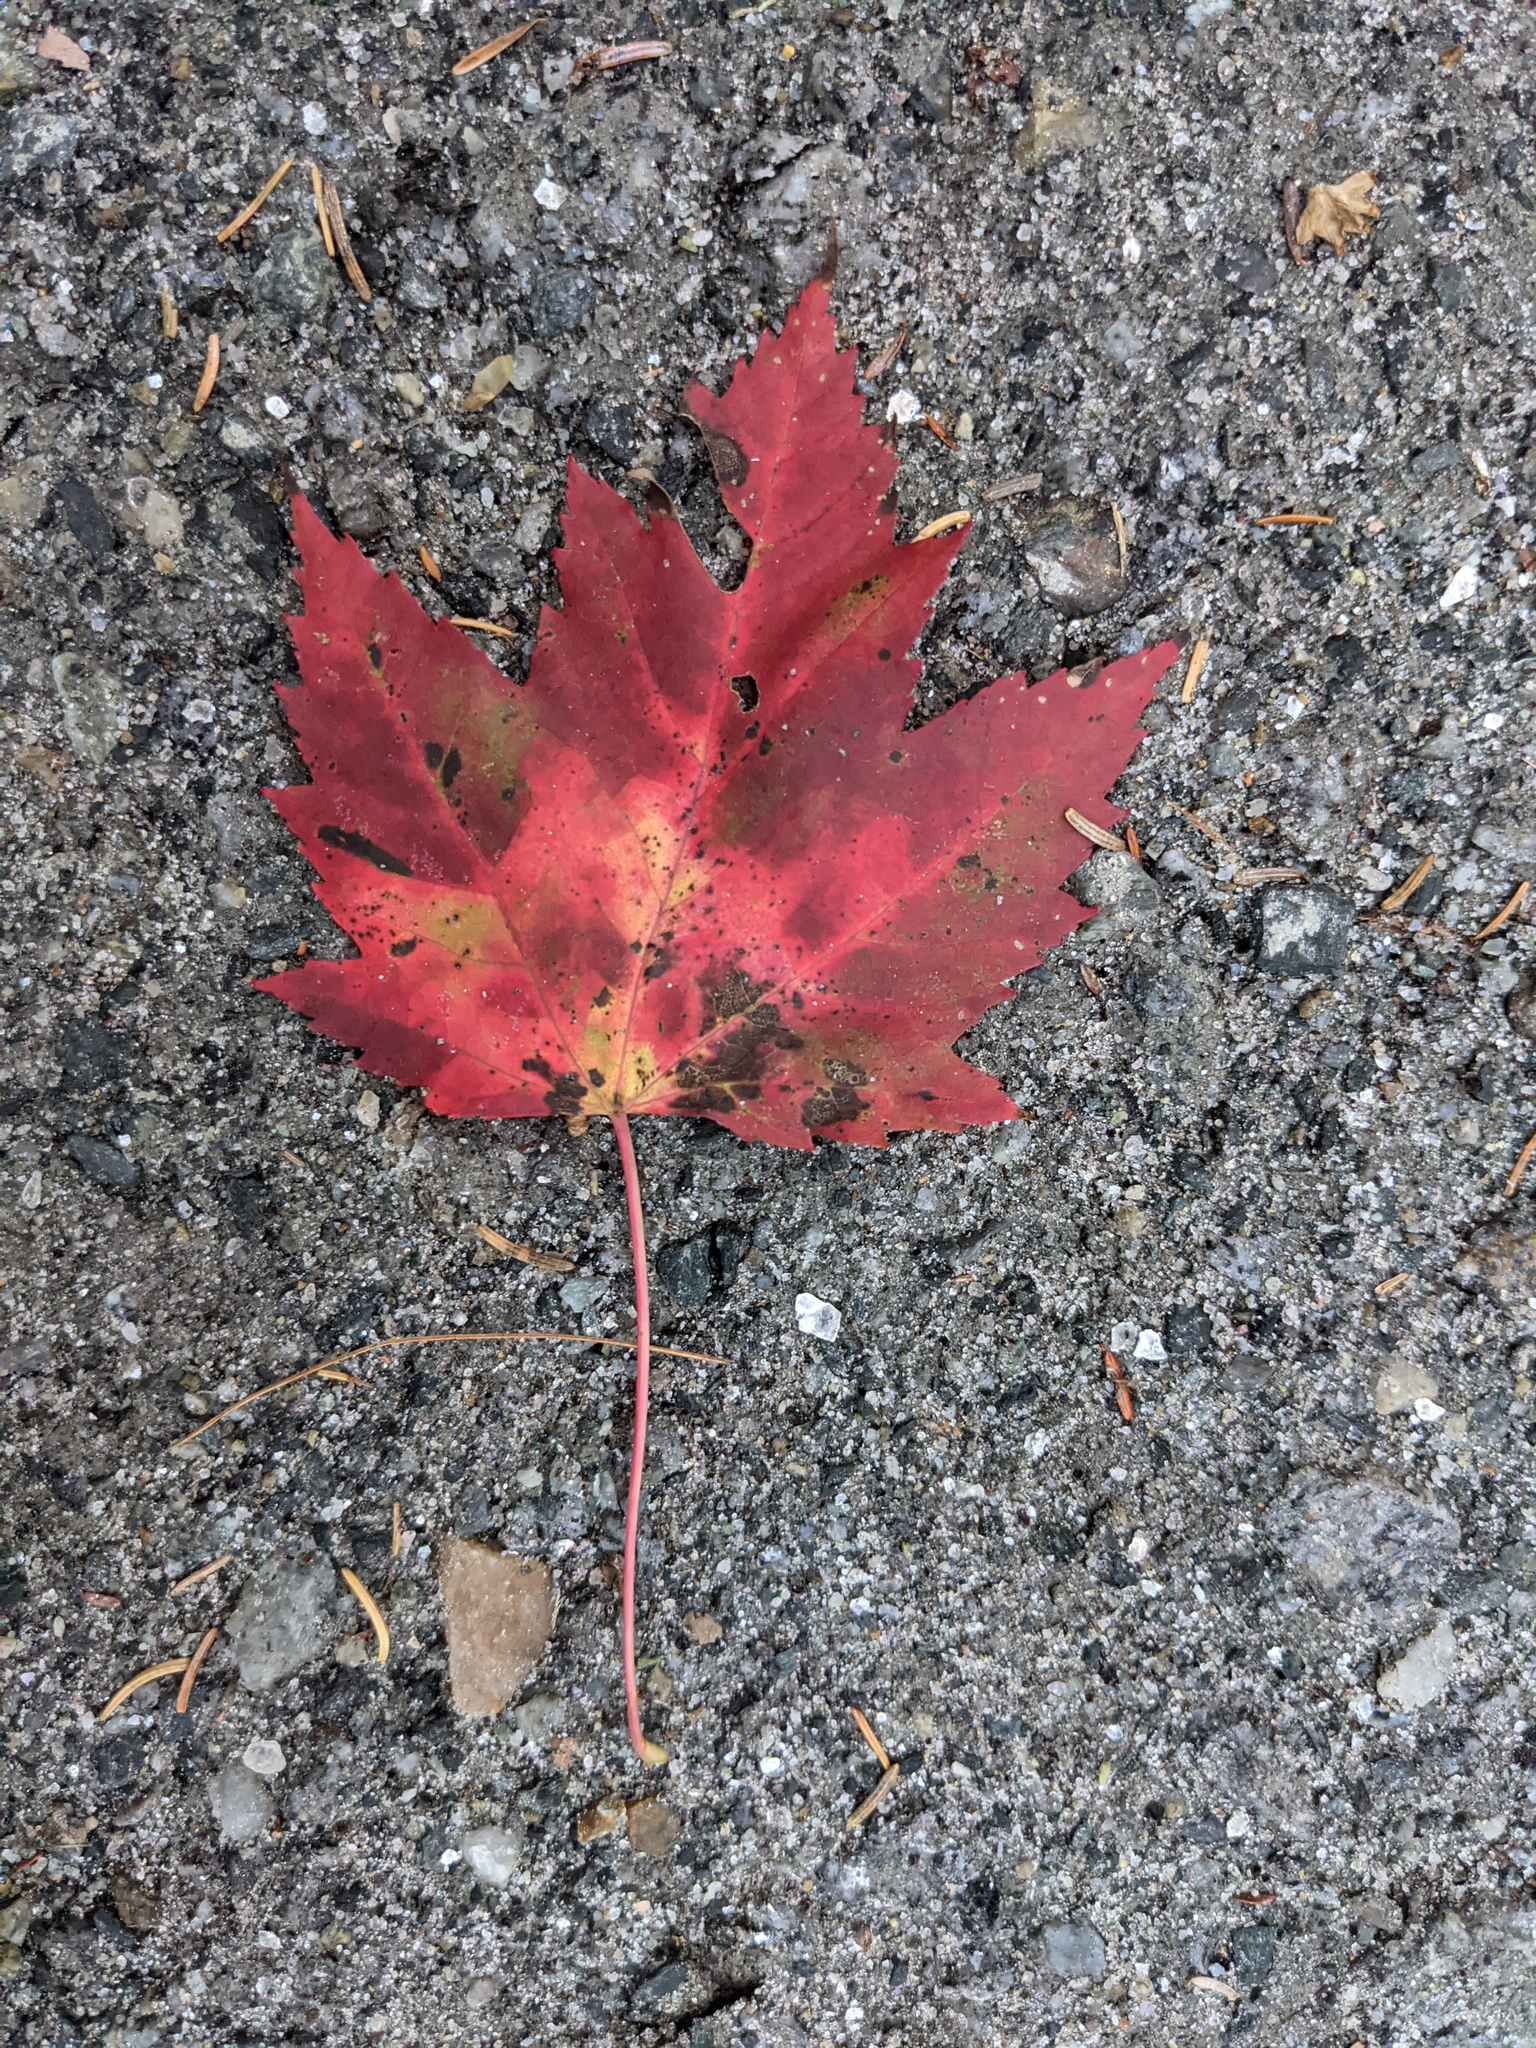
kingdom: Plantae
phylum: Tracheophyta
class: Magnoliopsida
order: Sapindales
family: Sapindaceae
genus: Acer
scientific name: Acer rubrum
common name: Red maple
